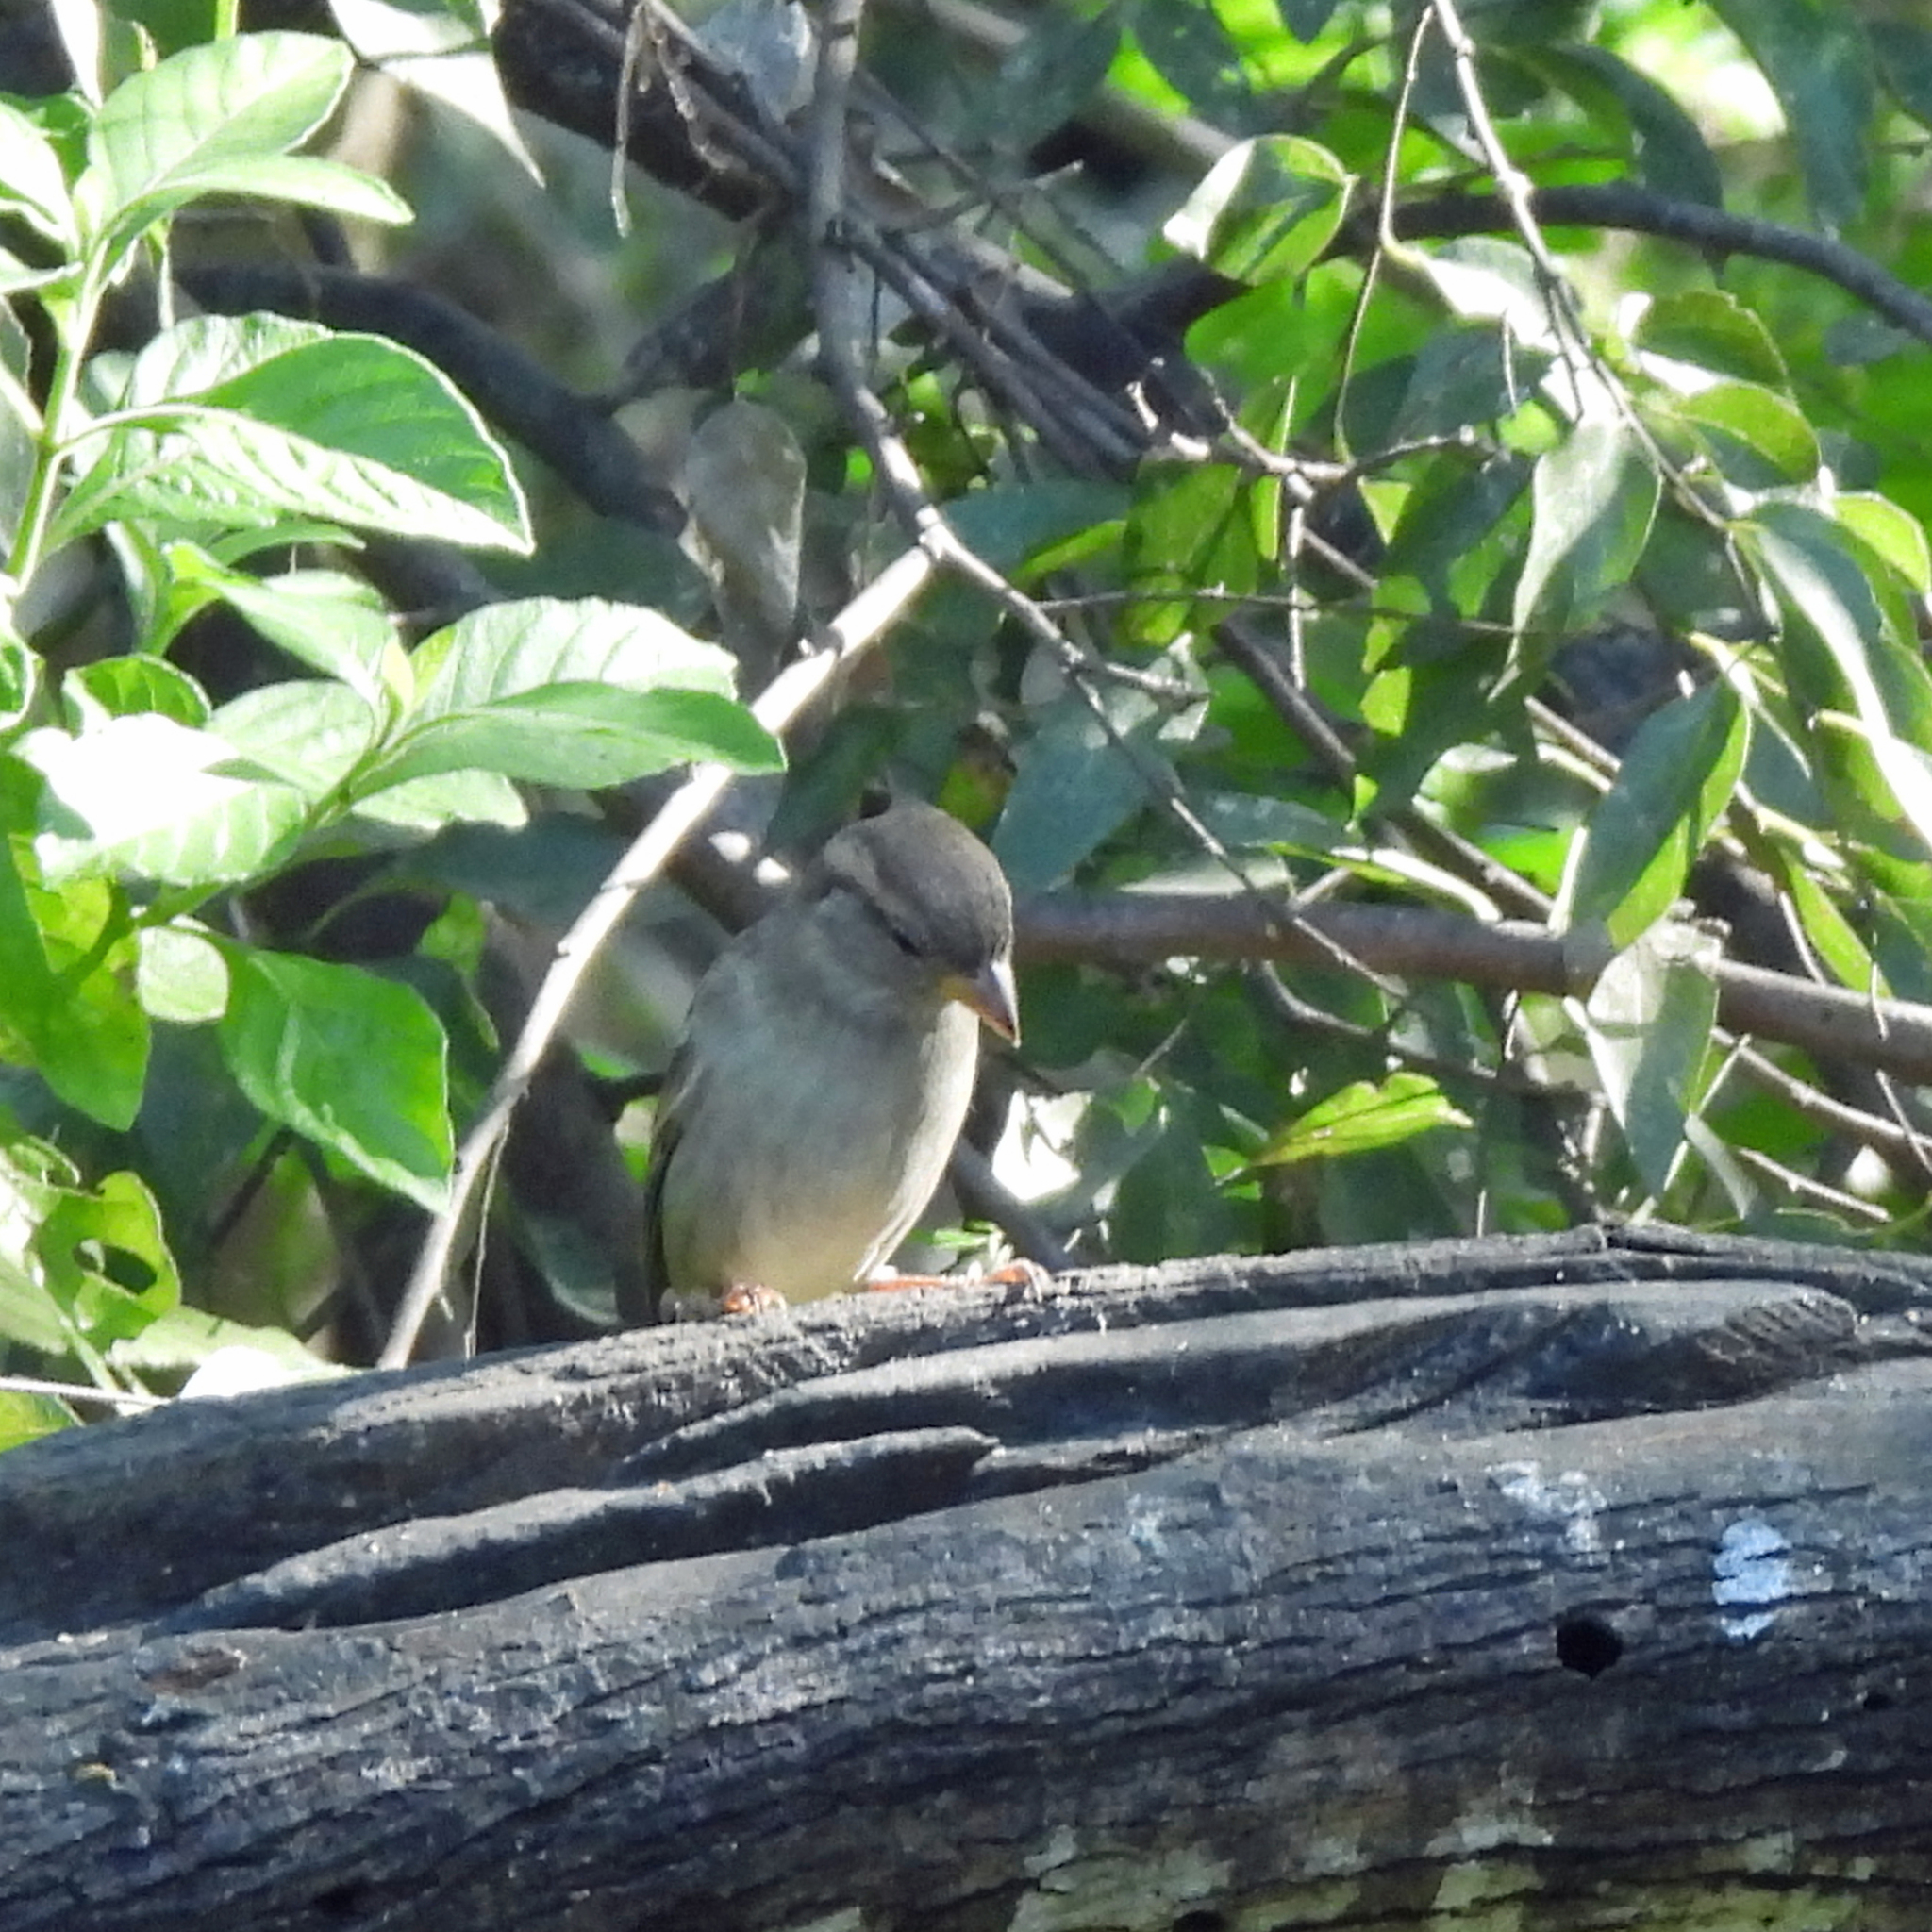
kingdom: Animalia
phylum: Chordata
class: Aves
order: Passeriformes
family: Passeridae
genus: Passer
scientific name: Passer domesticus
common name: House sparrow
